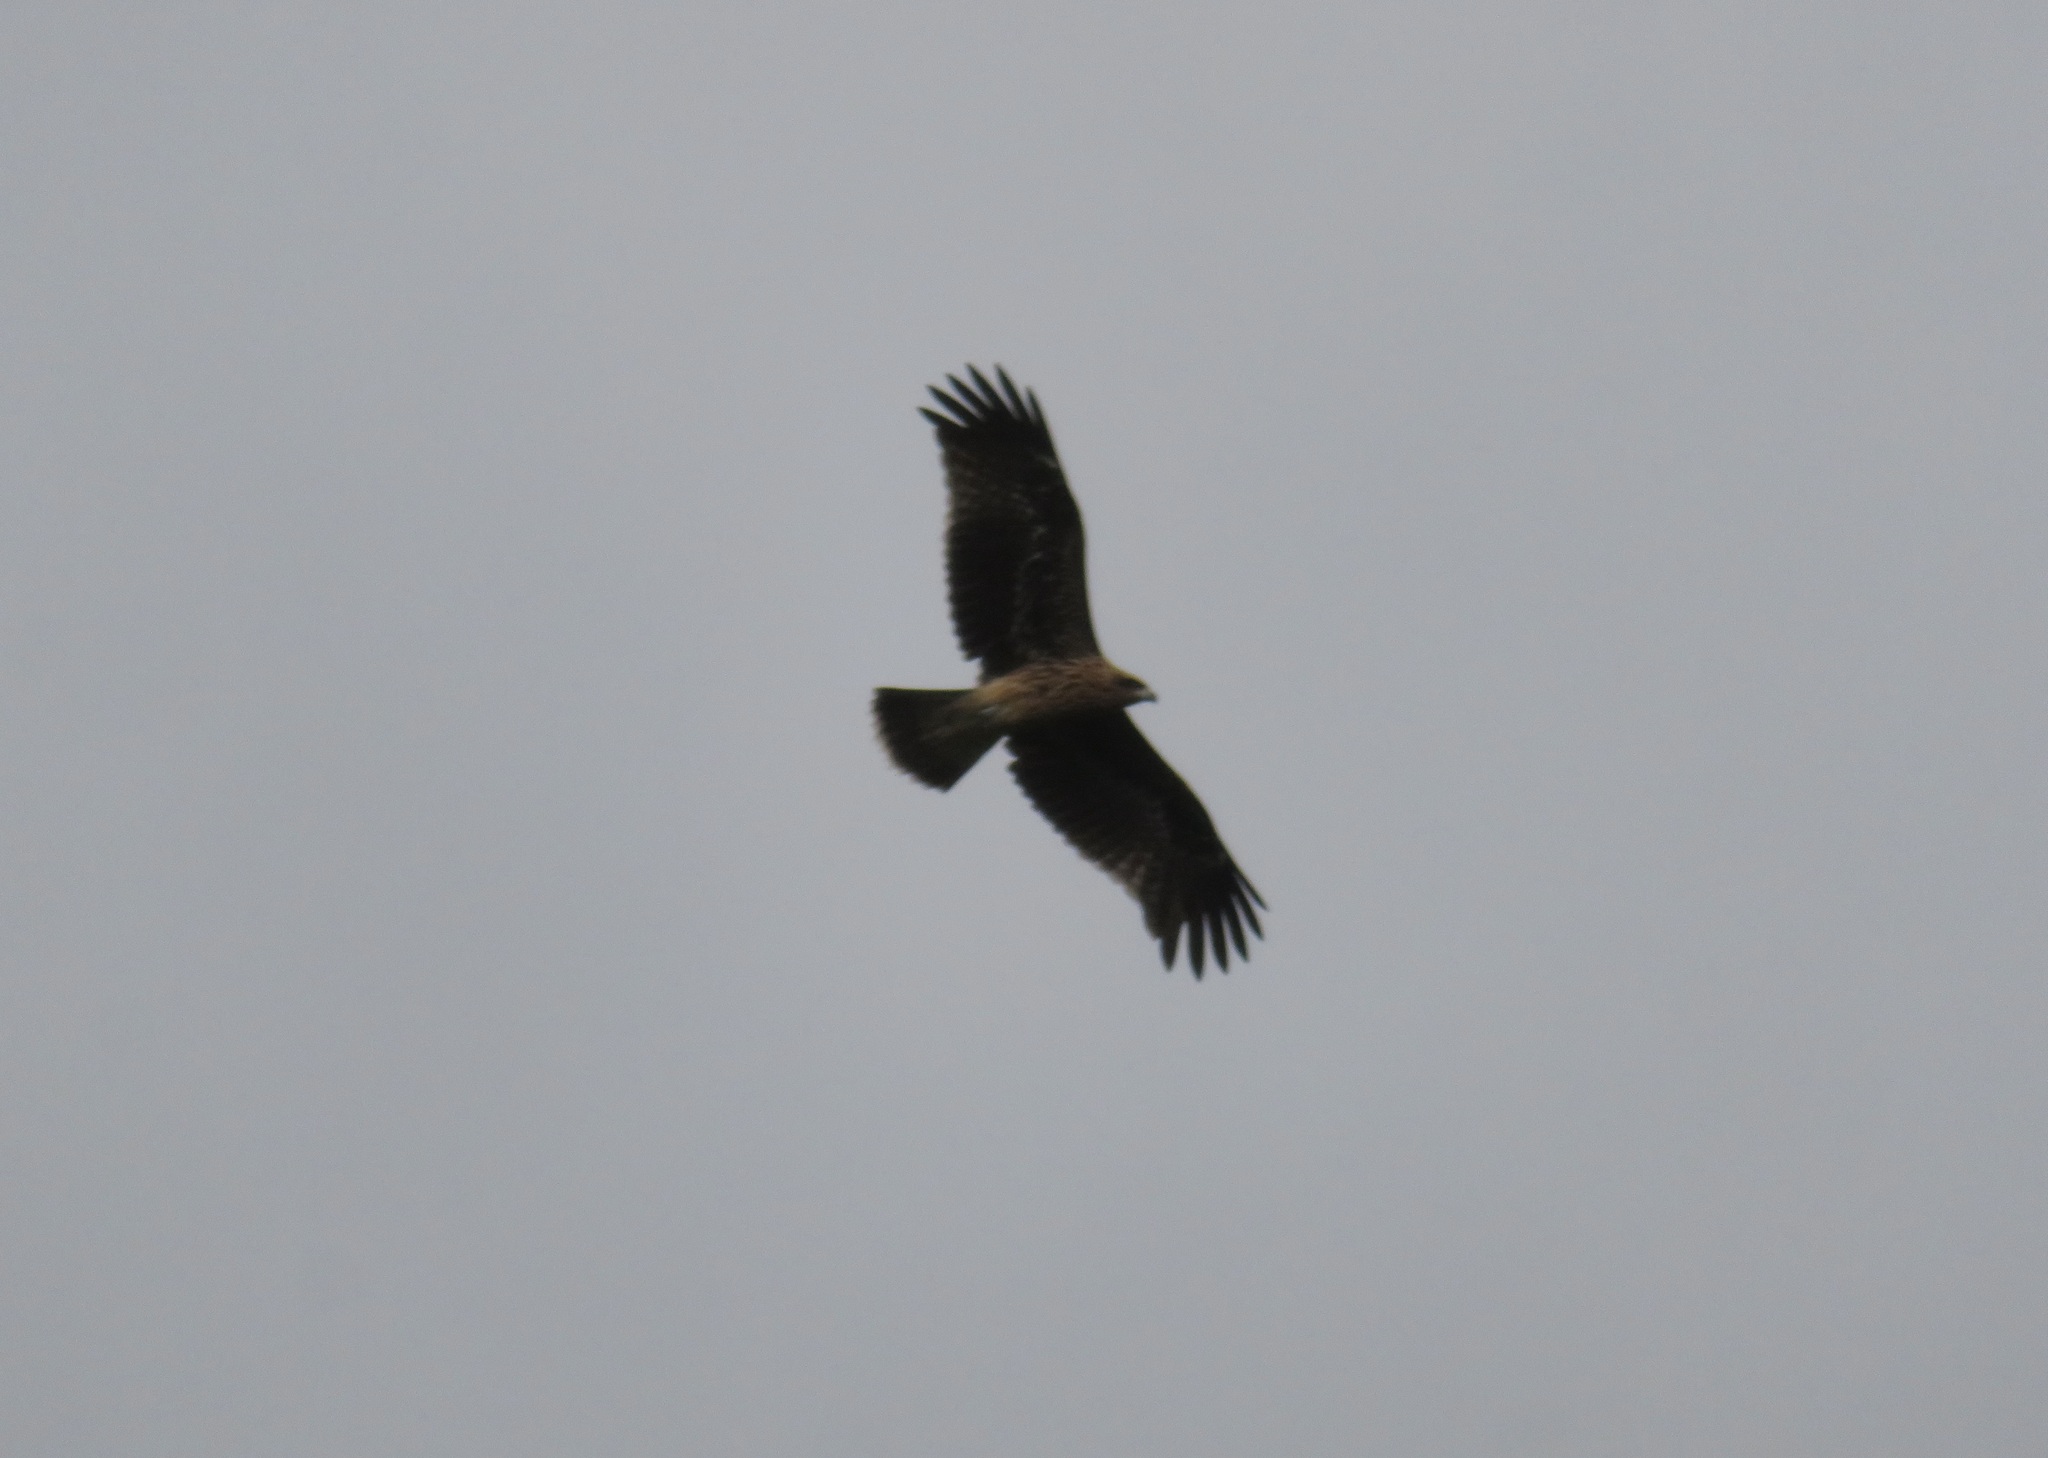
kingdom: Animalia
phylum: Chordata
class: Aves
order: Accipitriformes
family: Accipitridae
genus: Milvus
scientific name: Milvus migrans
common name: Black kite
